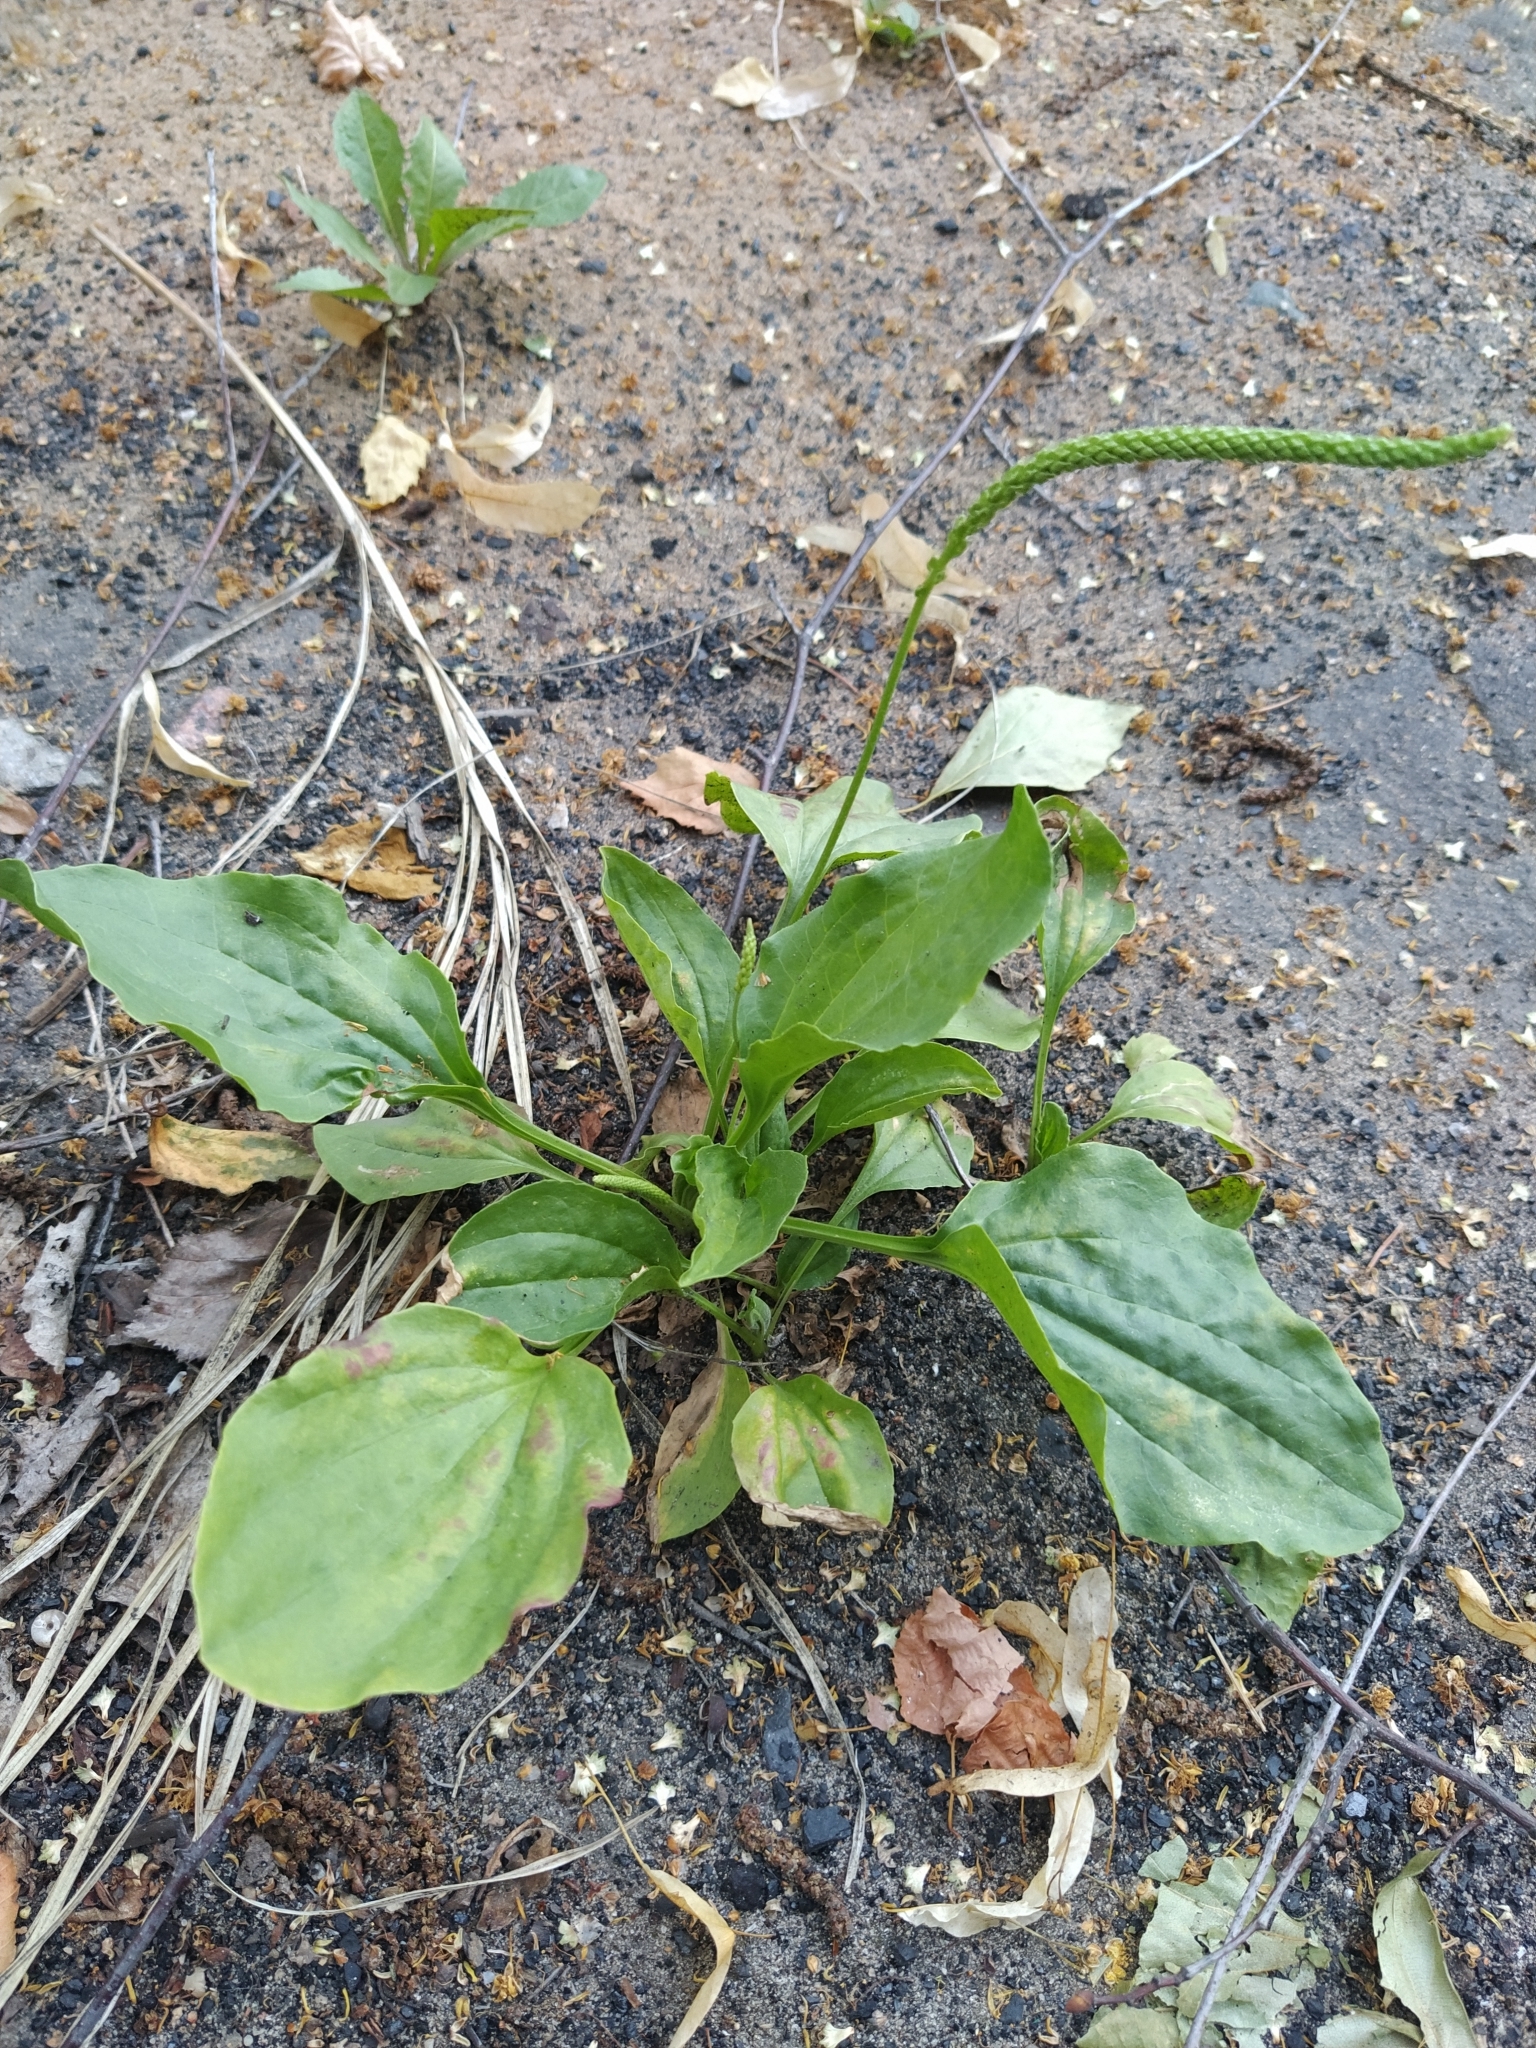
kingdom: Plantae
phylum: Tracheophyta
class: Magnoliopsida
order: Lamiales
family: Plantaginaceae
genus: Plantago
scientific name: Plantago major
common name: Common plantain
